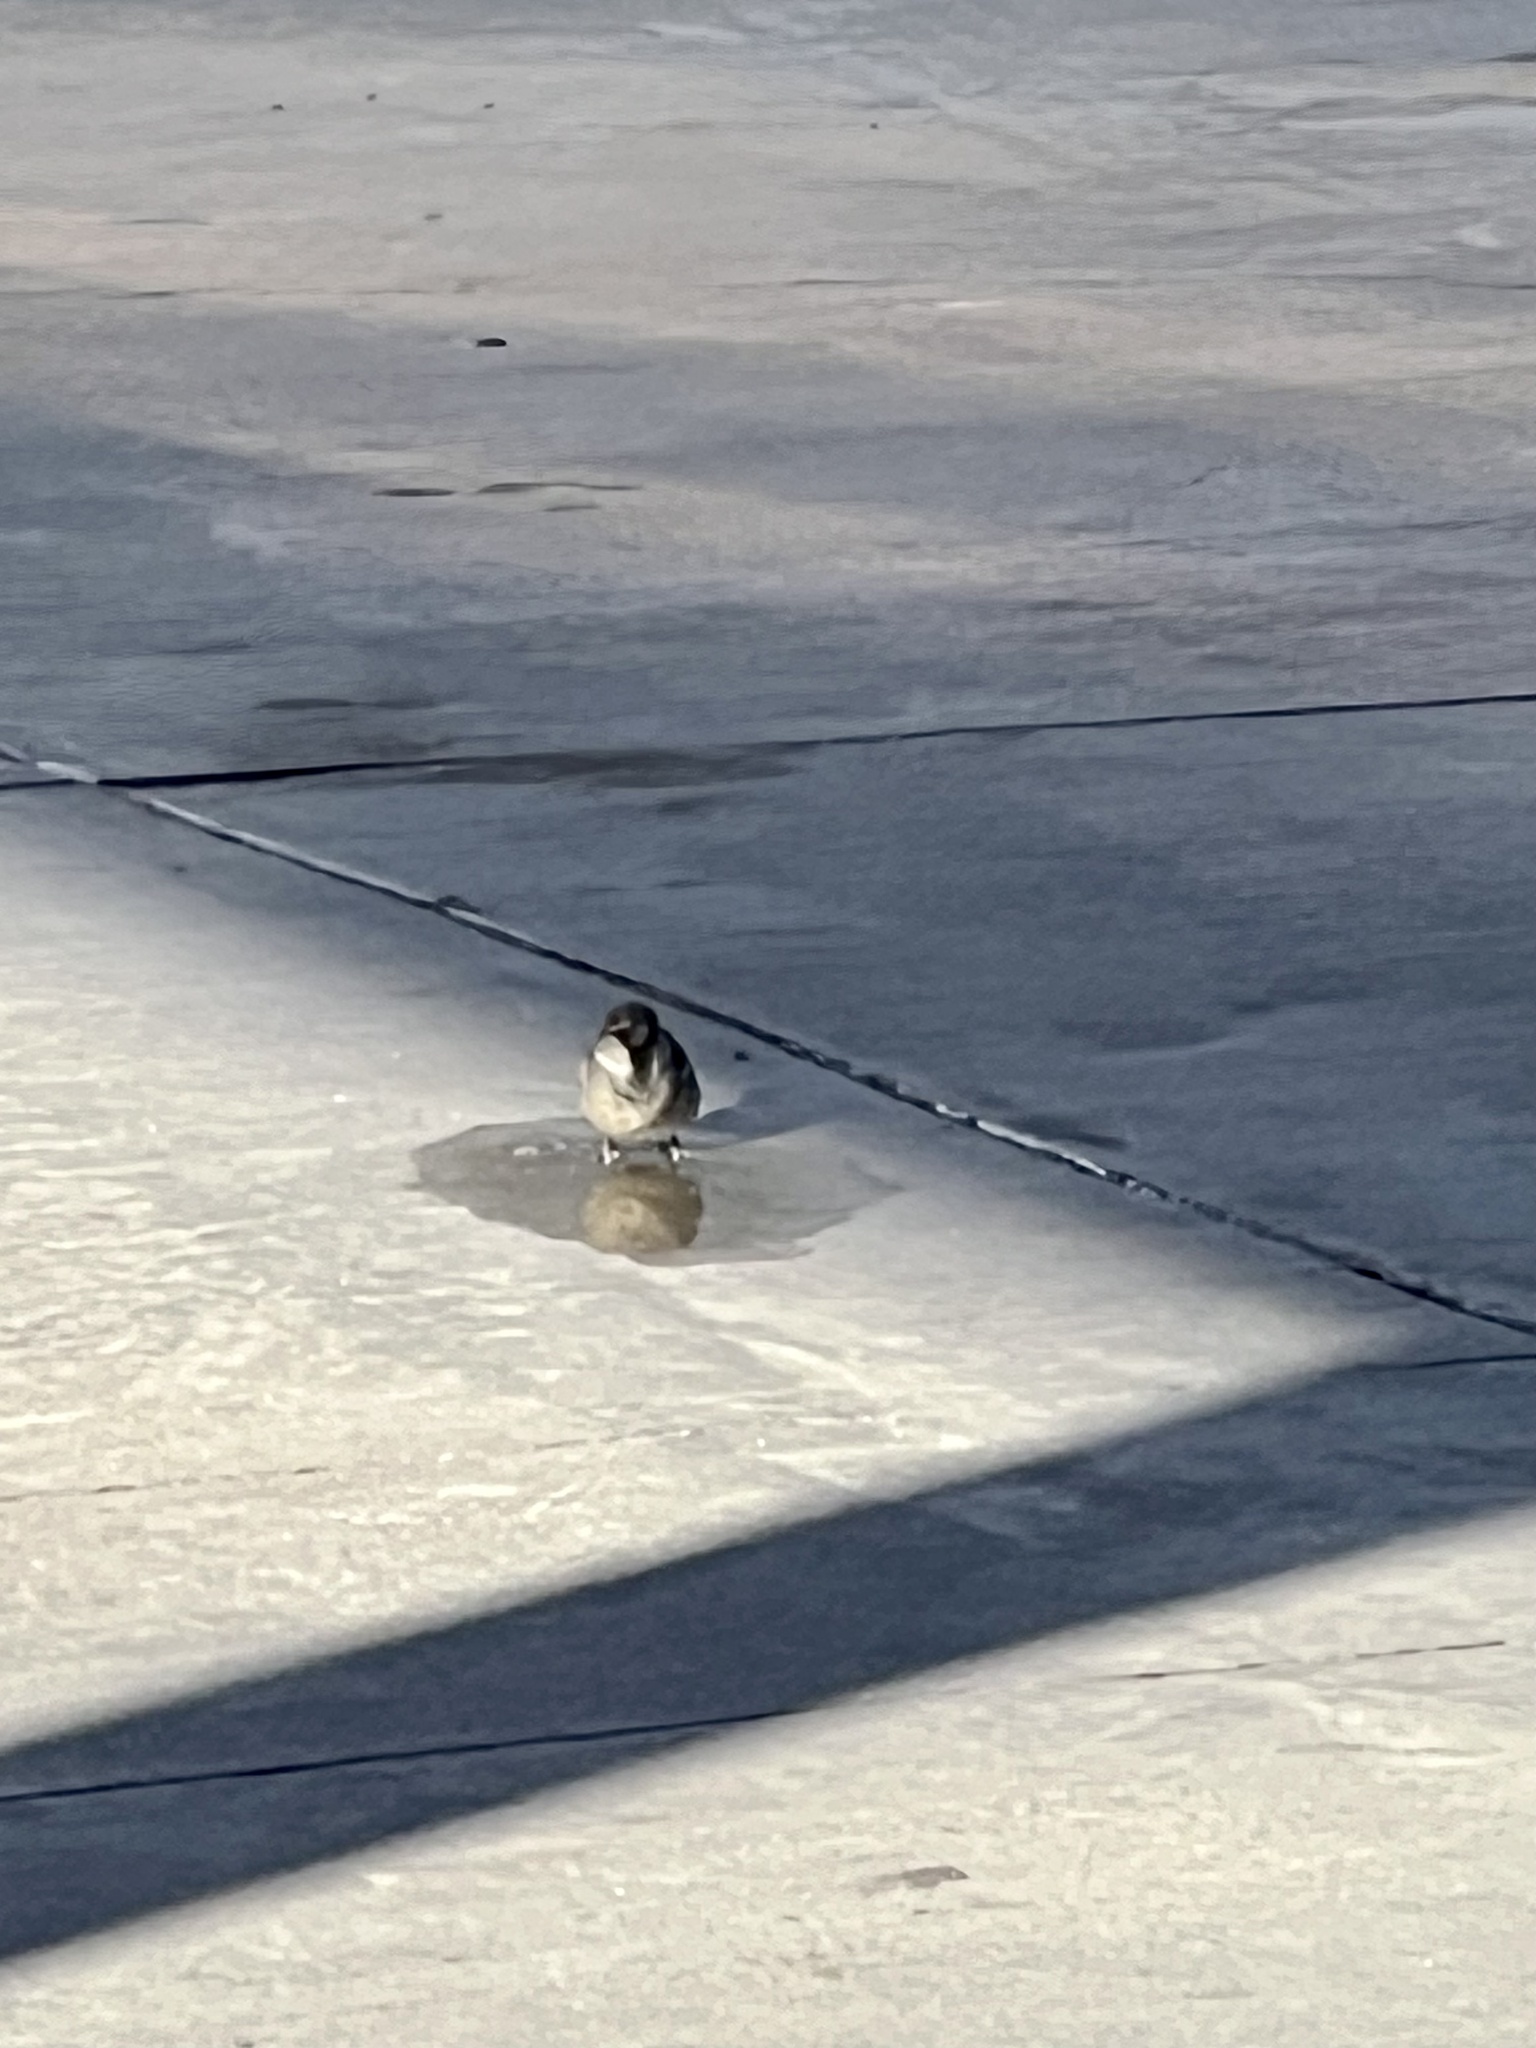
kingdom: Animalia
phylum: Chordata
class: Aves
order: Passeriformes
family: Passeridae
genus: Passer
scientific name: Passer domesticus
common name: House sparrow
